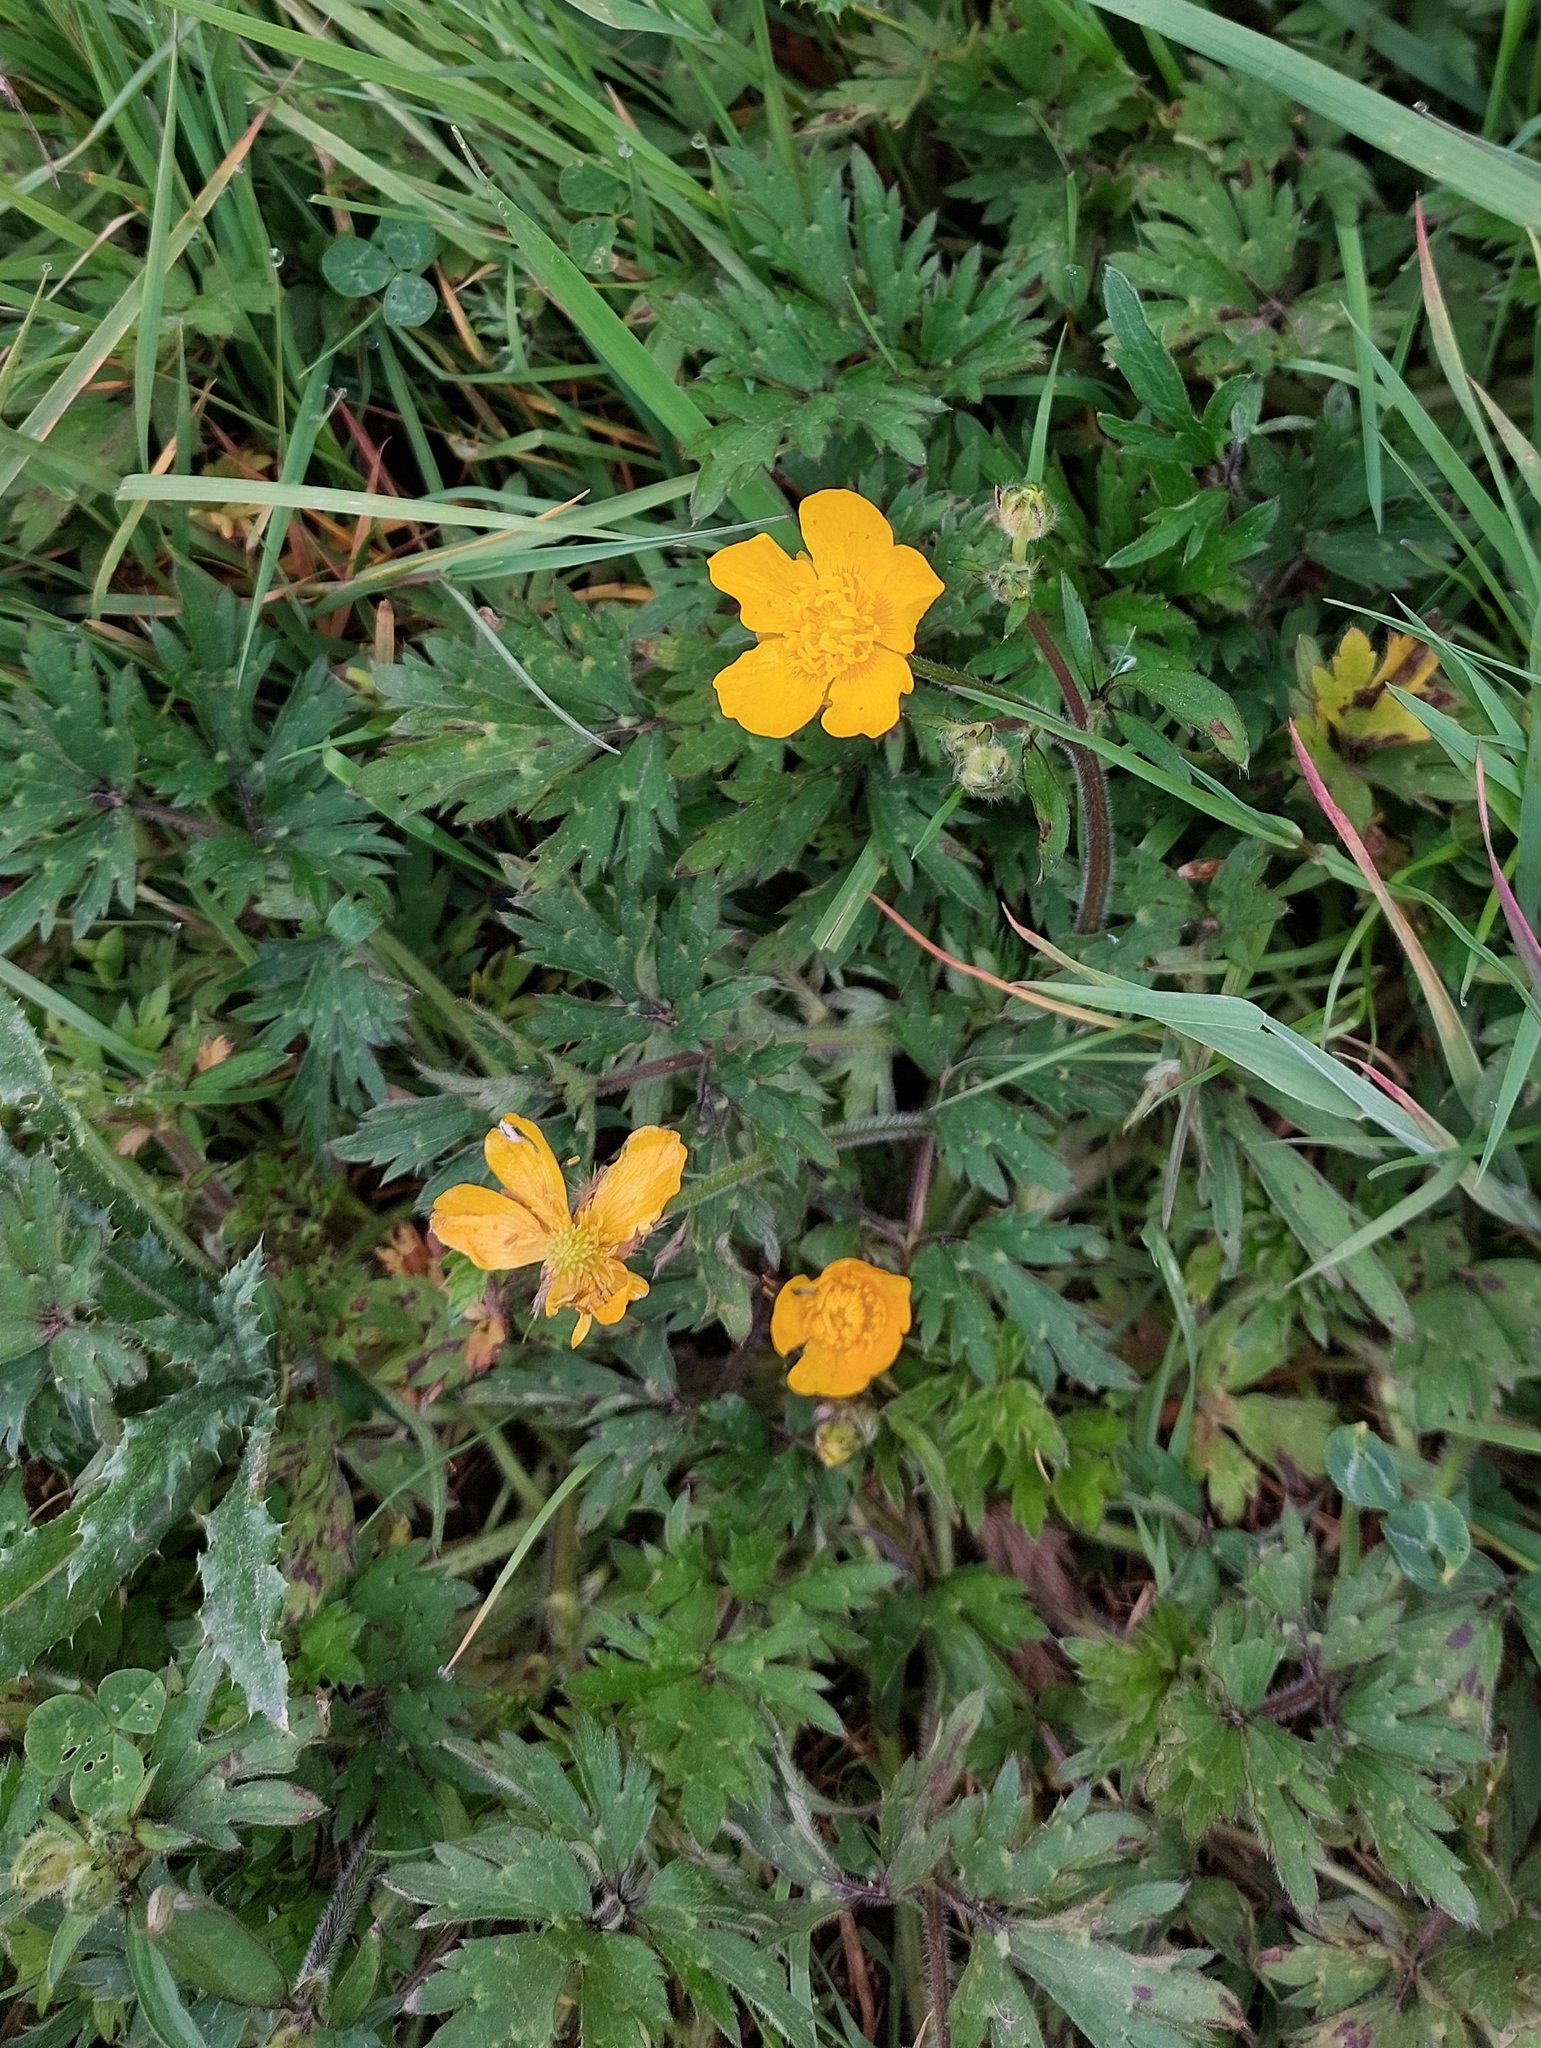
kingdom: Plantae
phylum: Tracheophyta
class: Magnoliopsida
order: Ranunculales
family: Ranunculaceae
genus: Ranunculus
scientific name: Ranunculus repens
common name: Creeping buttercup
